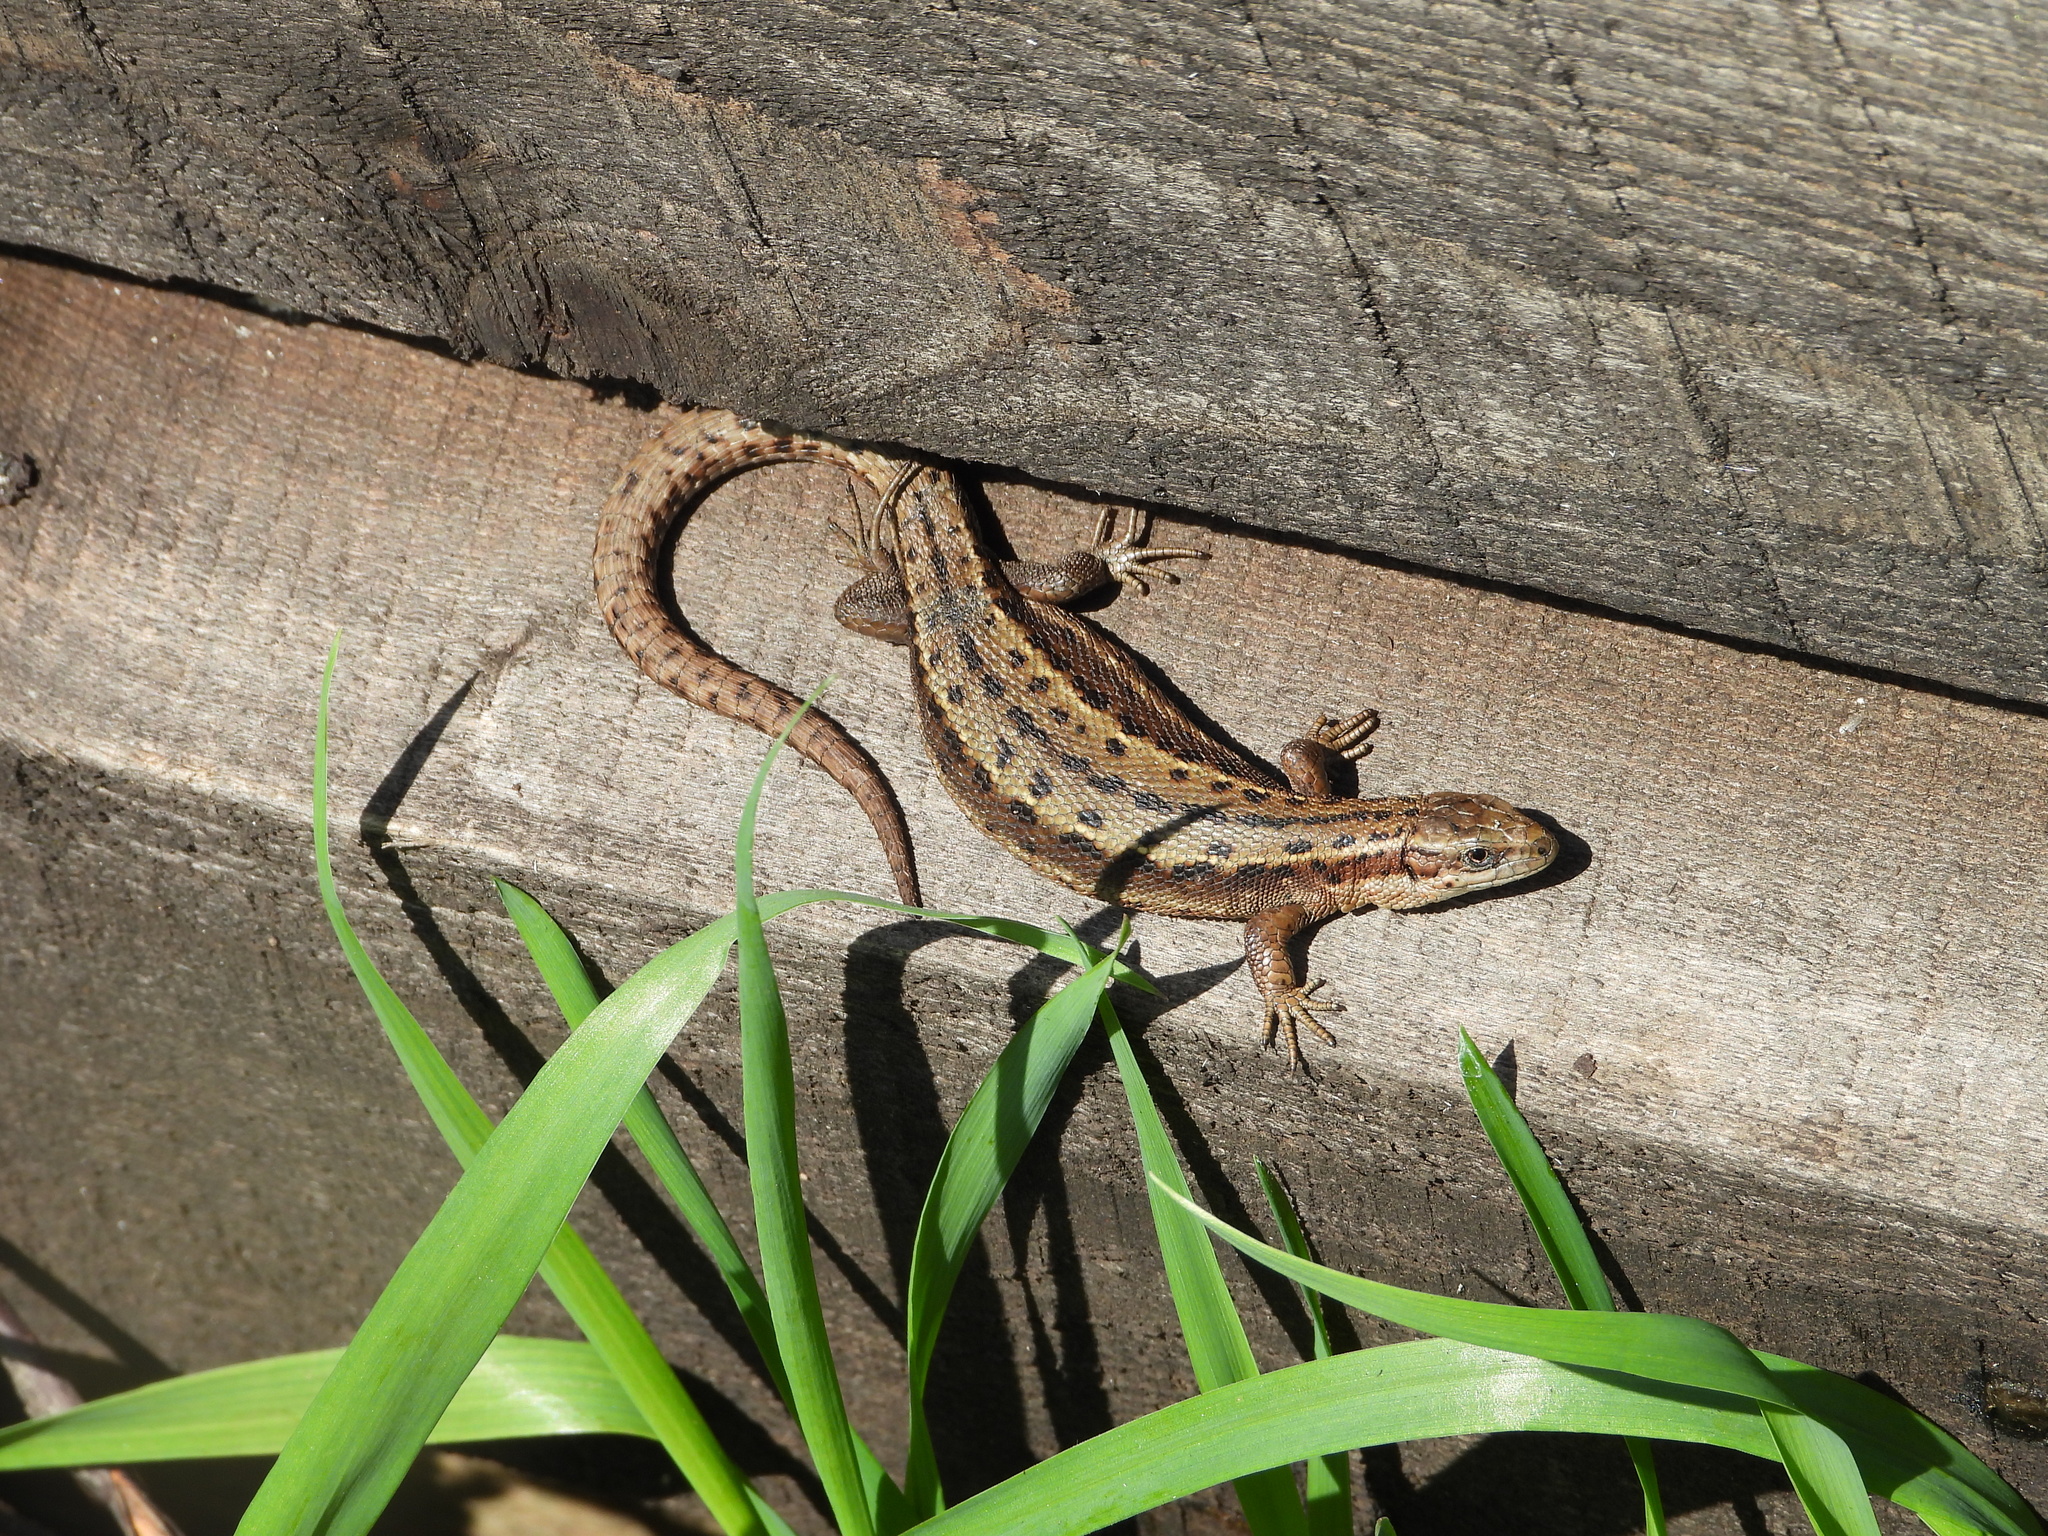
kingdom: Animalia
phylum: Chordata
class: Squamata
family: Lacertidae
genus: Zootoca
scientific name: Zootoca vivipara
